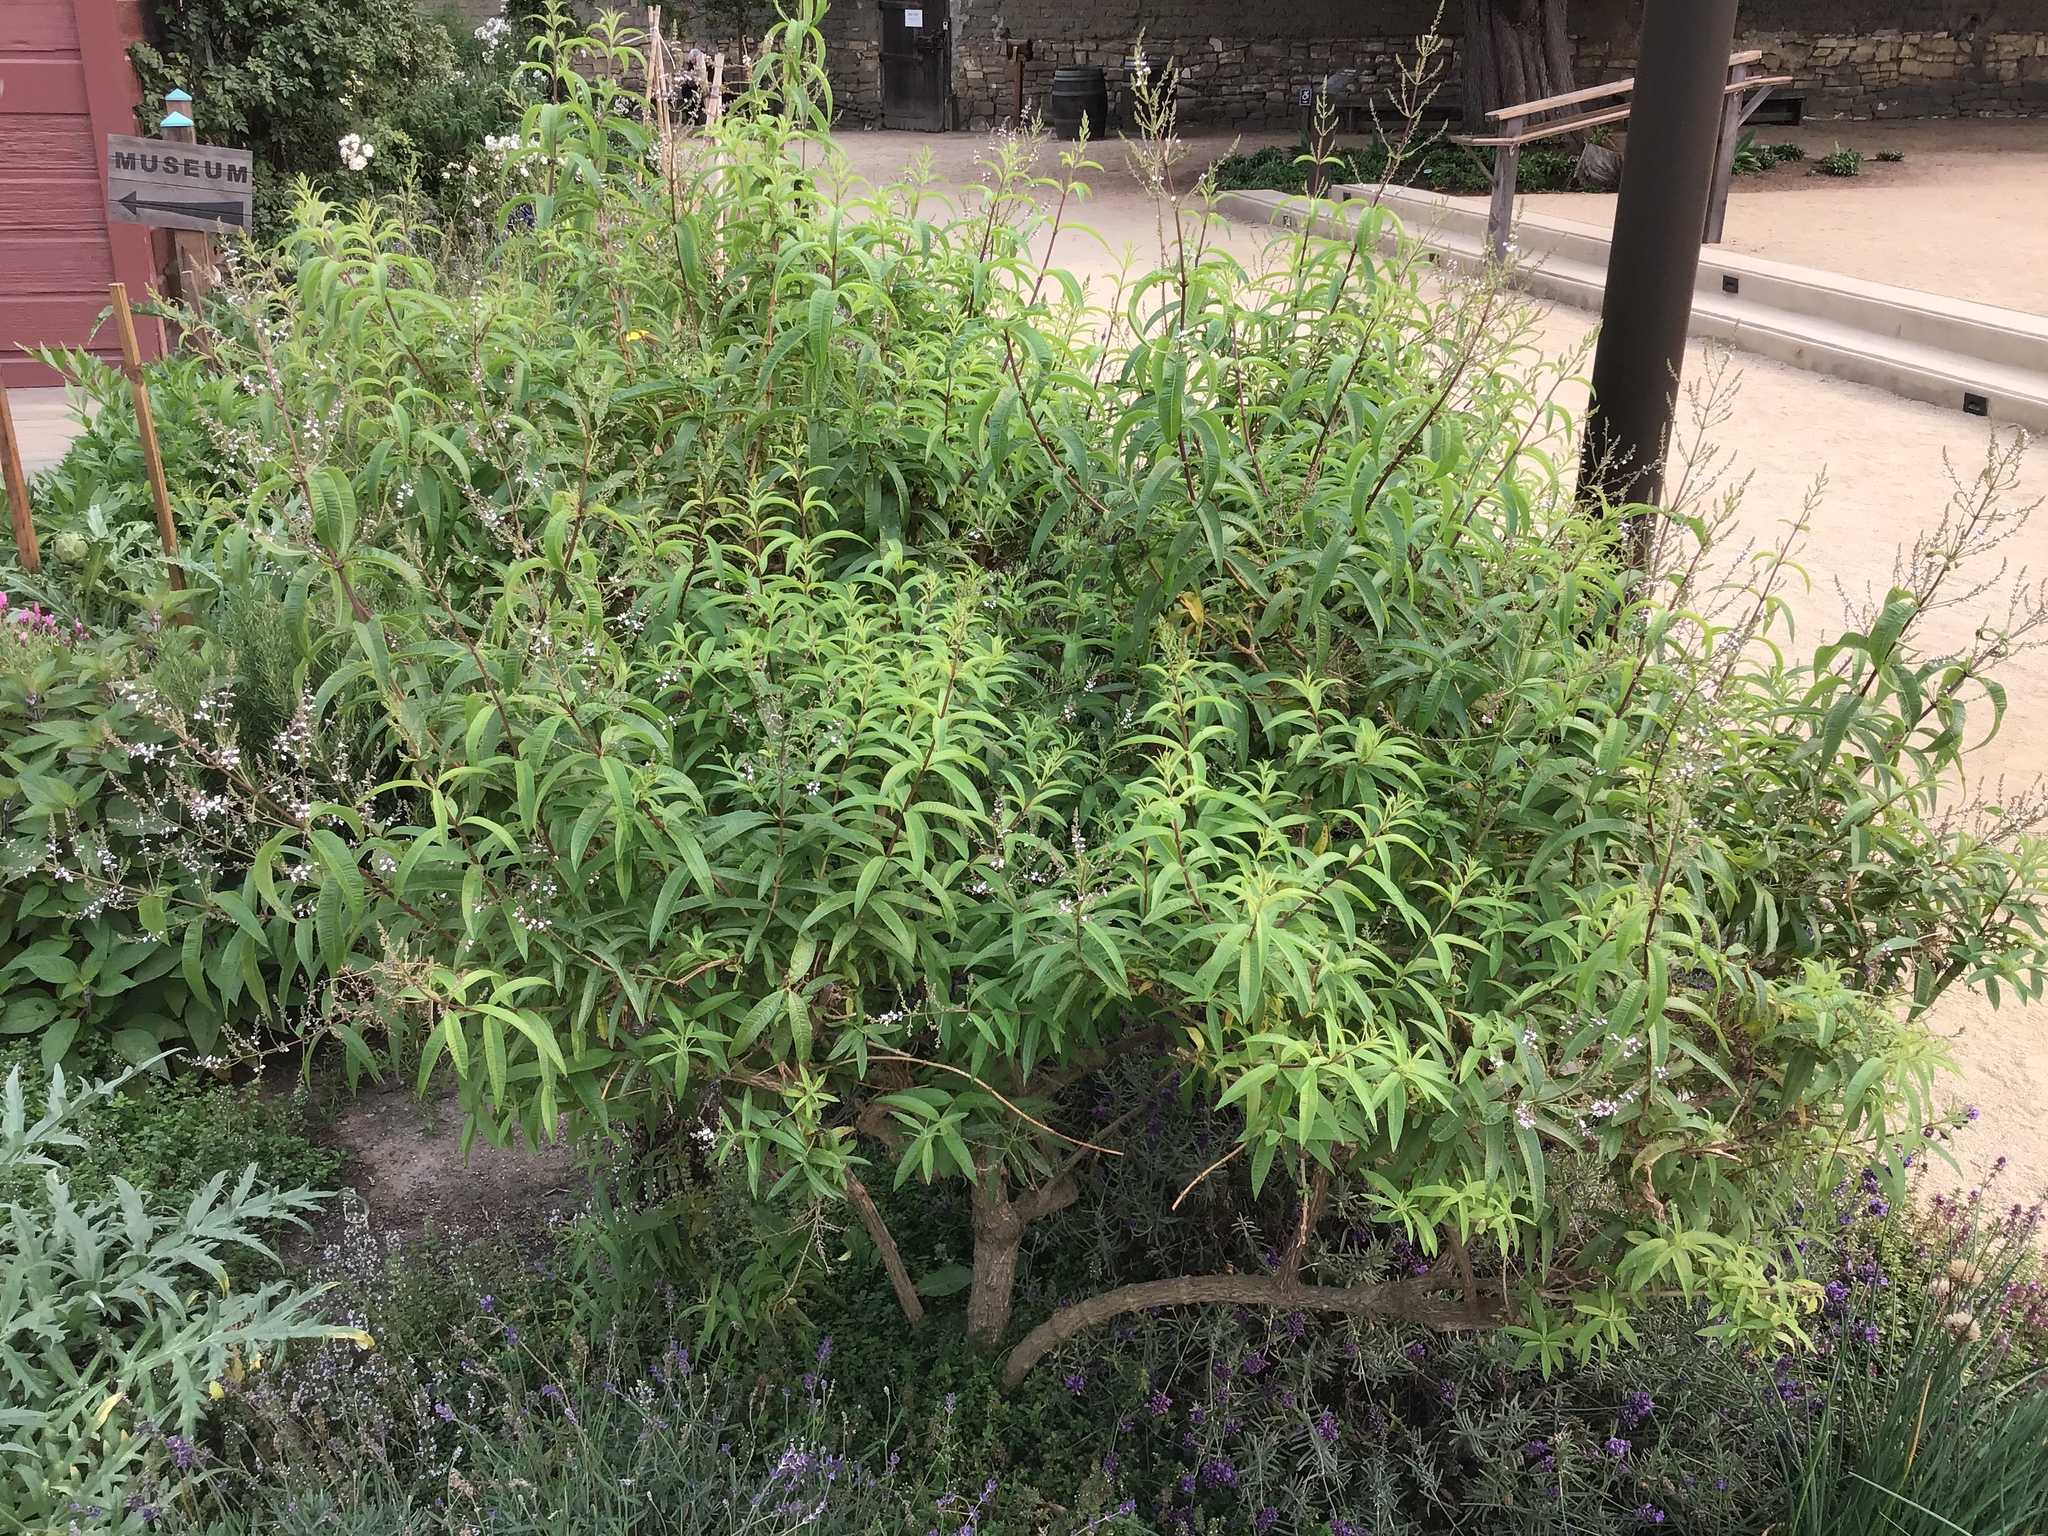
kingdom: Plantae
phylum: Tracheophyta
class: Magnoliopsida
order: Lamiales
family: Verbenaceae
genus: Aloysia
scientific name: Aloysia citrodora
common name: Lemon beebrush
